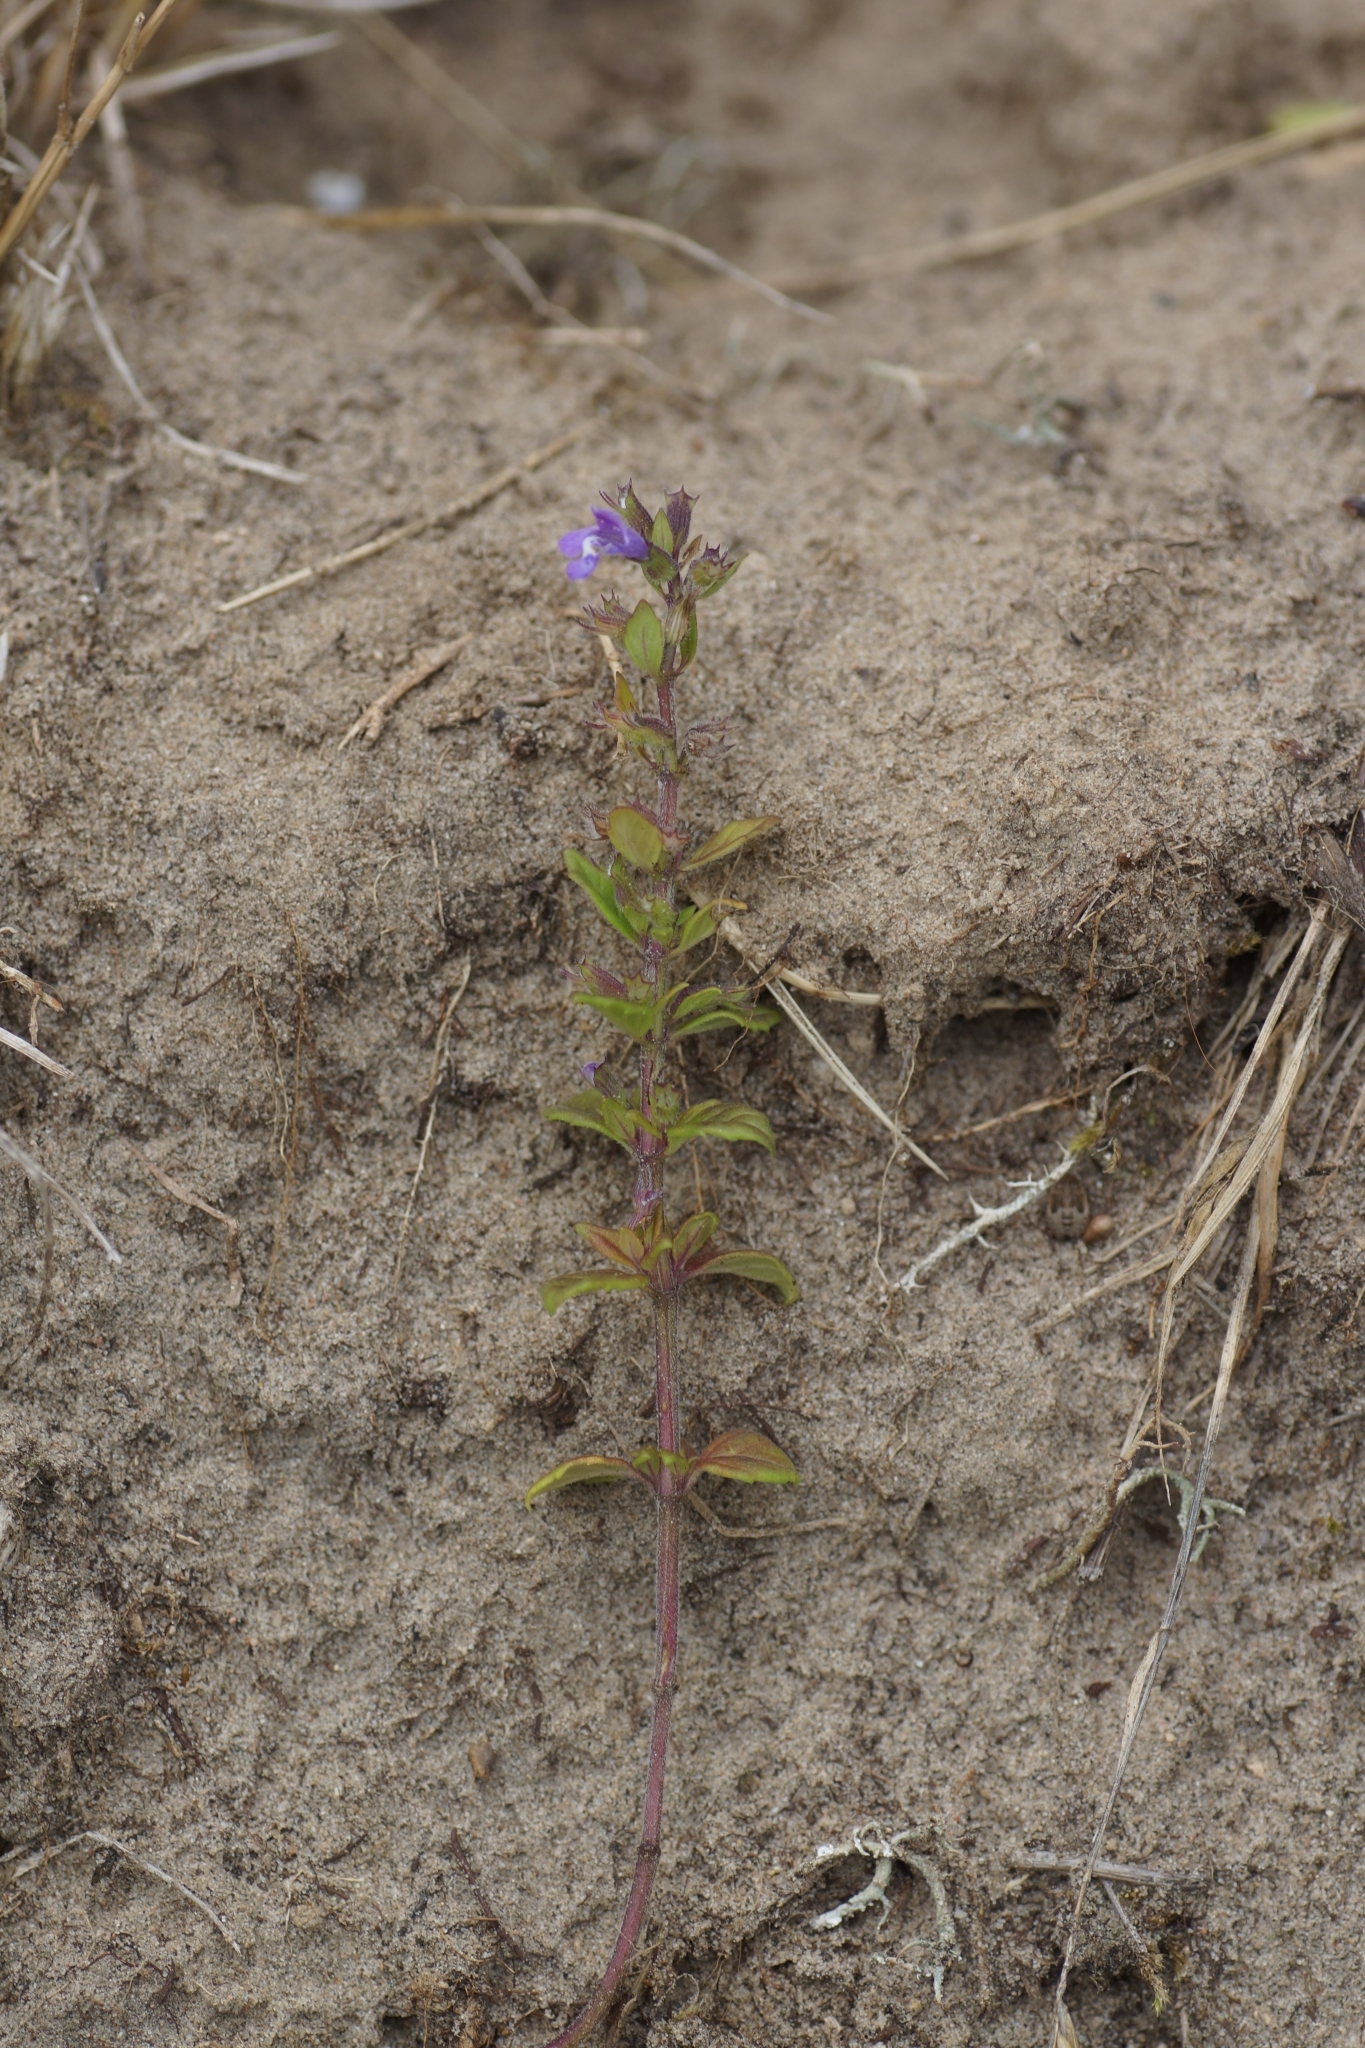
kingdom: Plantae
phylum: Tracheophyta
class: Magnoliopsida
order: Lamiales
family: Lamiaceae
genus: Clinopodium
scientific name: Clinopodium acinos
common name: Basil thyme
